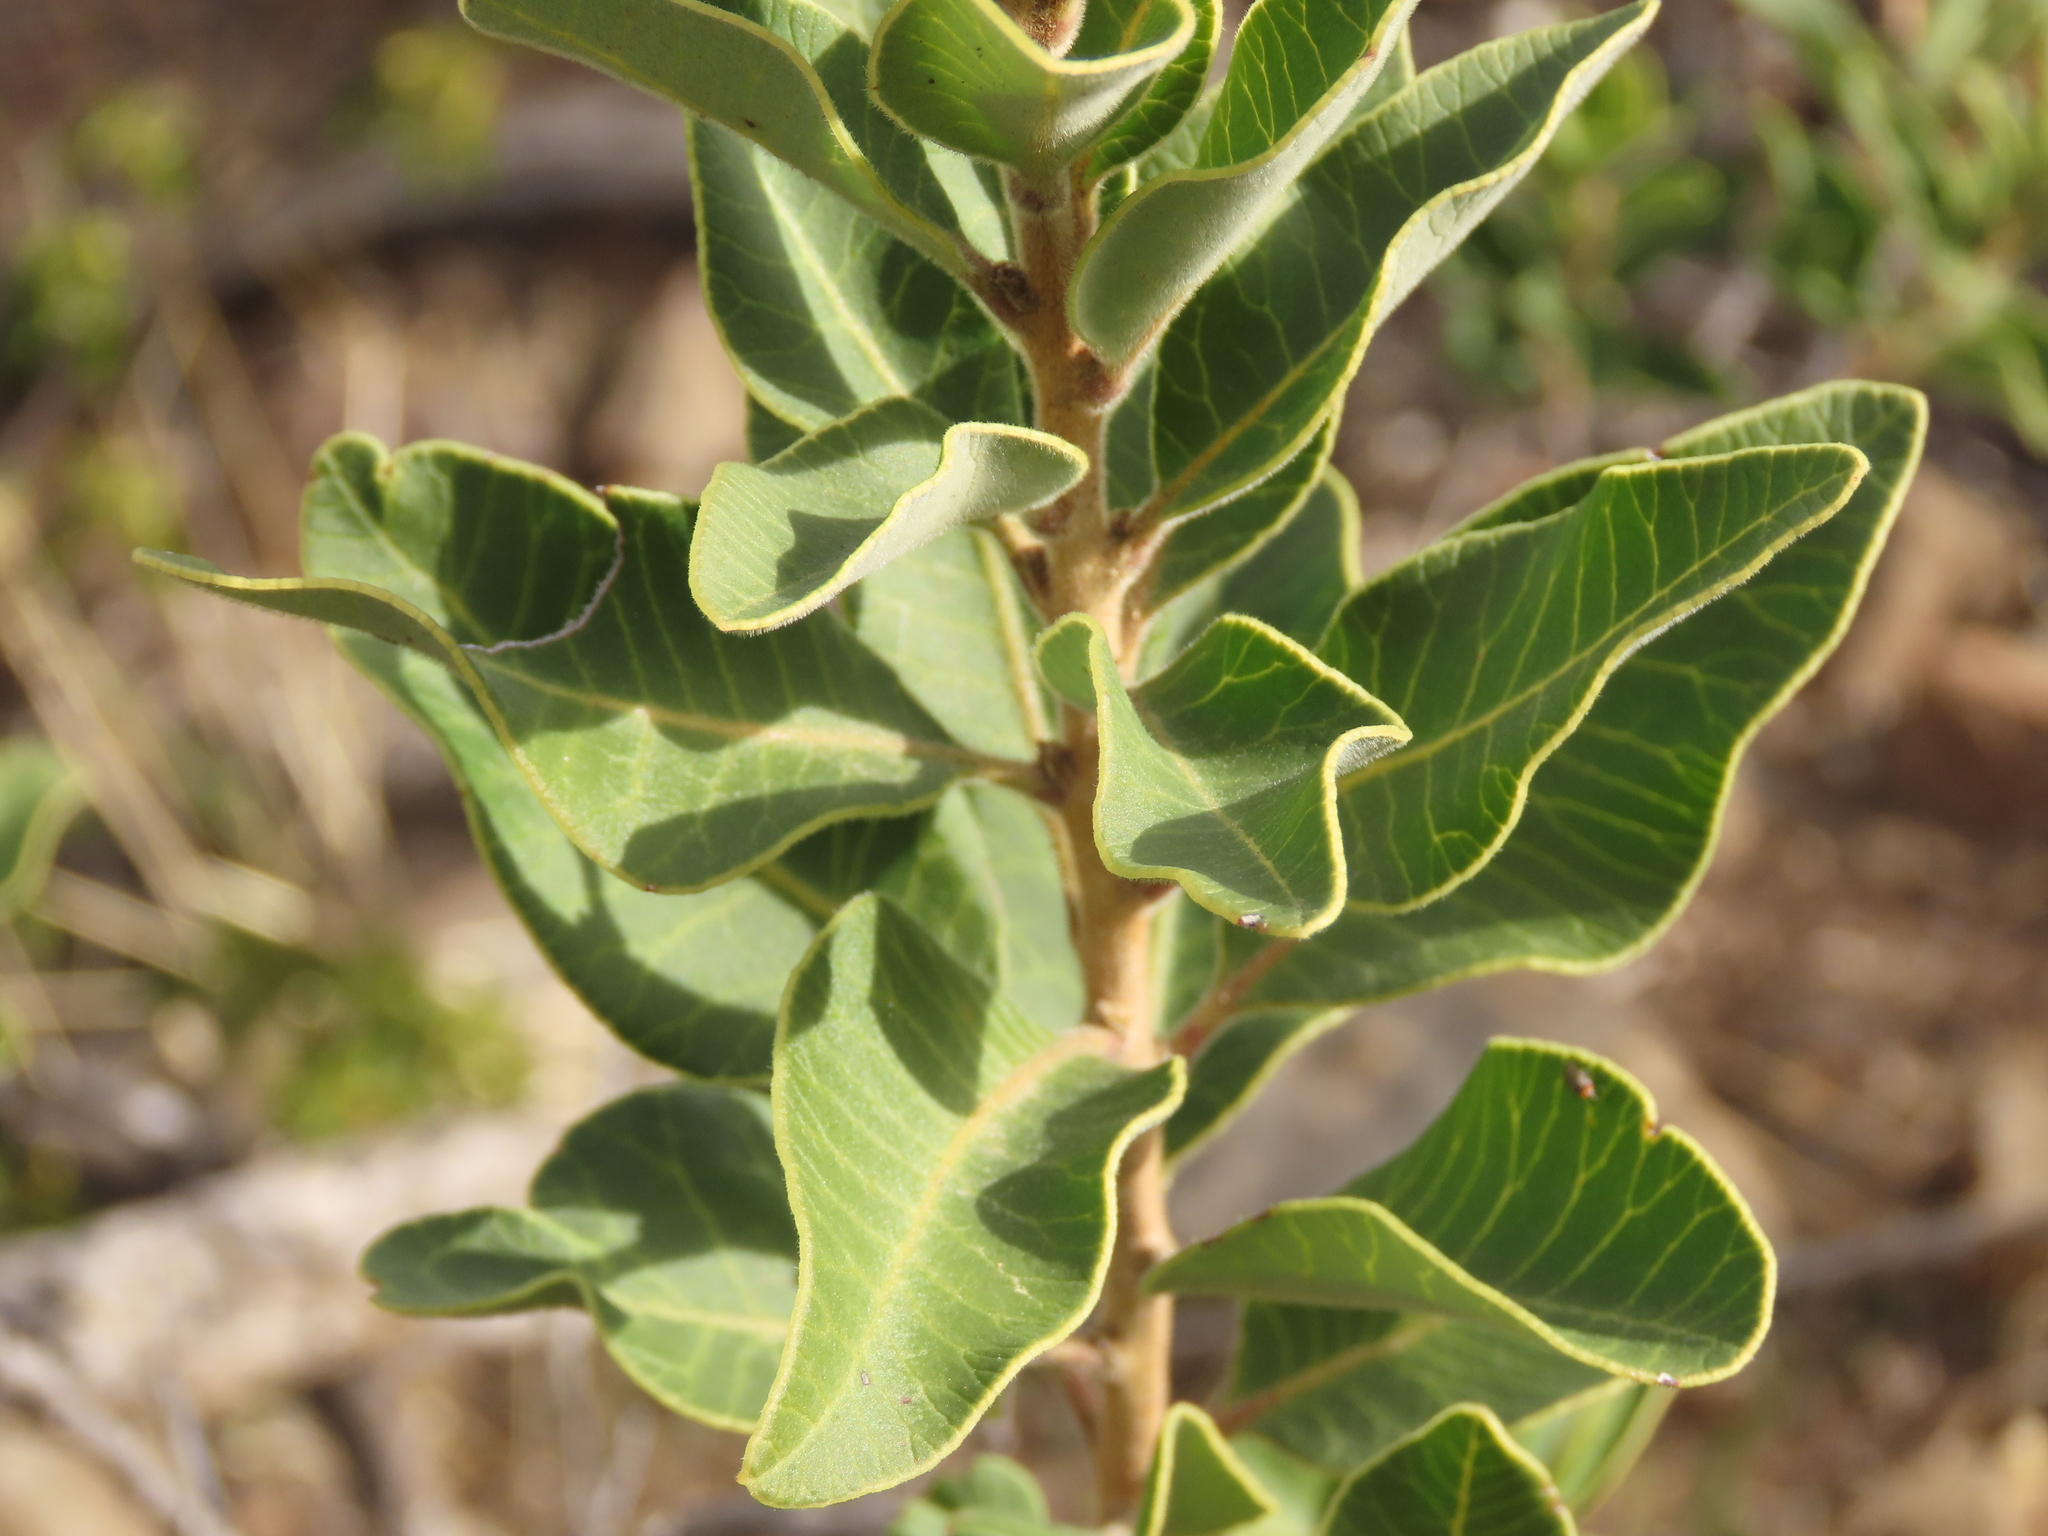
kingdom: Plantae
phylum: Tracheophyta
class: Magnoliopsida
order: Sapindales
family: Anacardiaceae
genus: Lithraea
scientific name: Lithraea caustica
